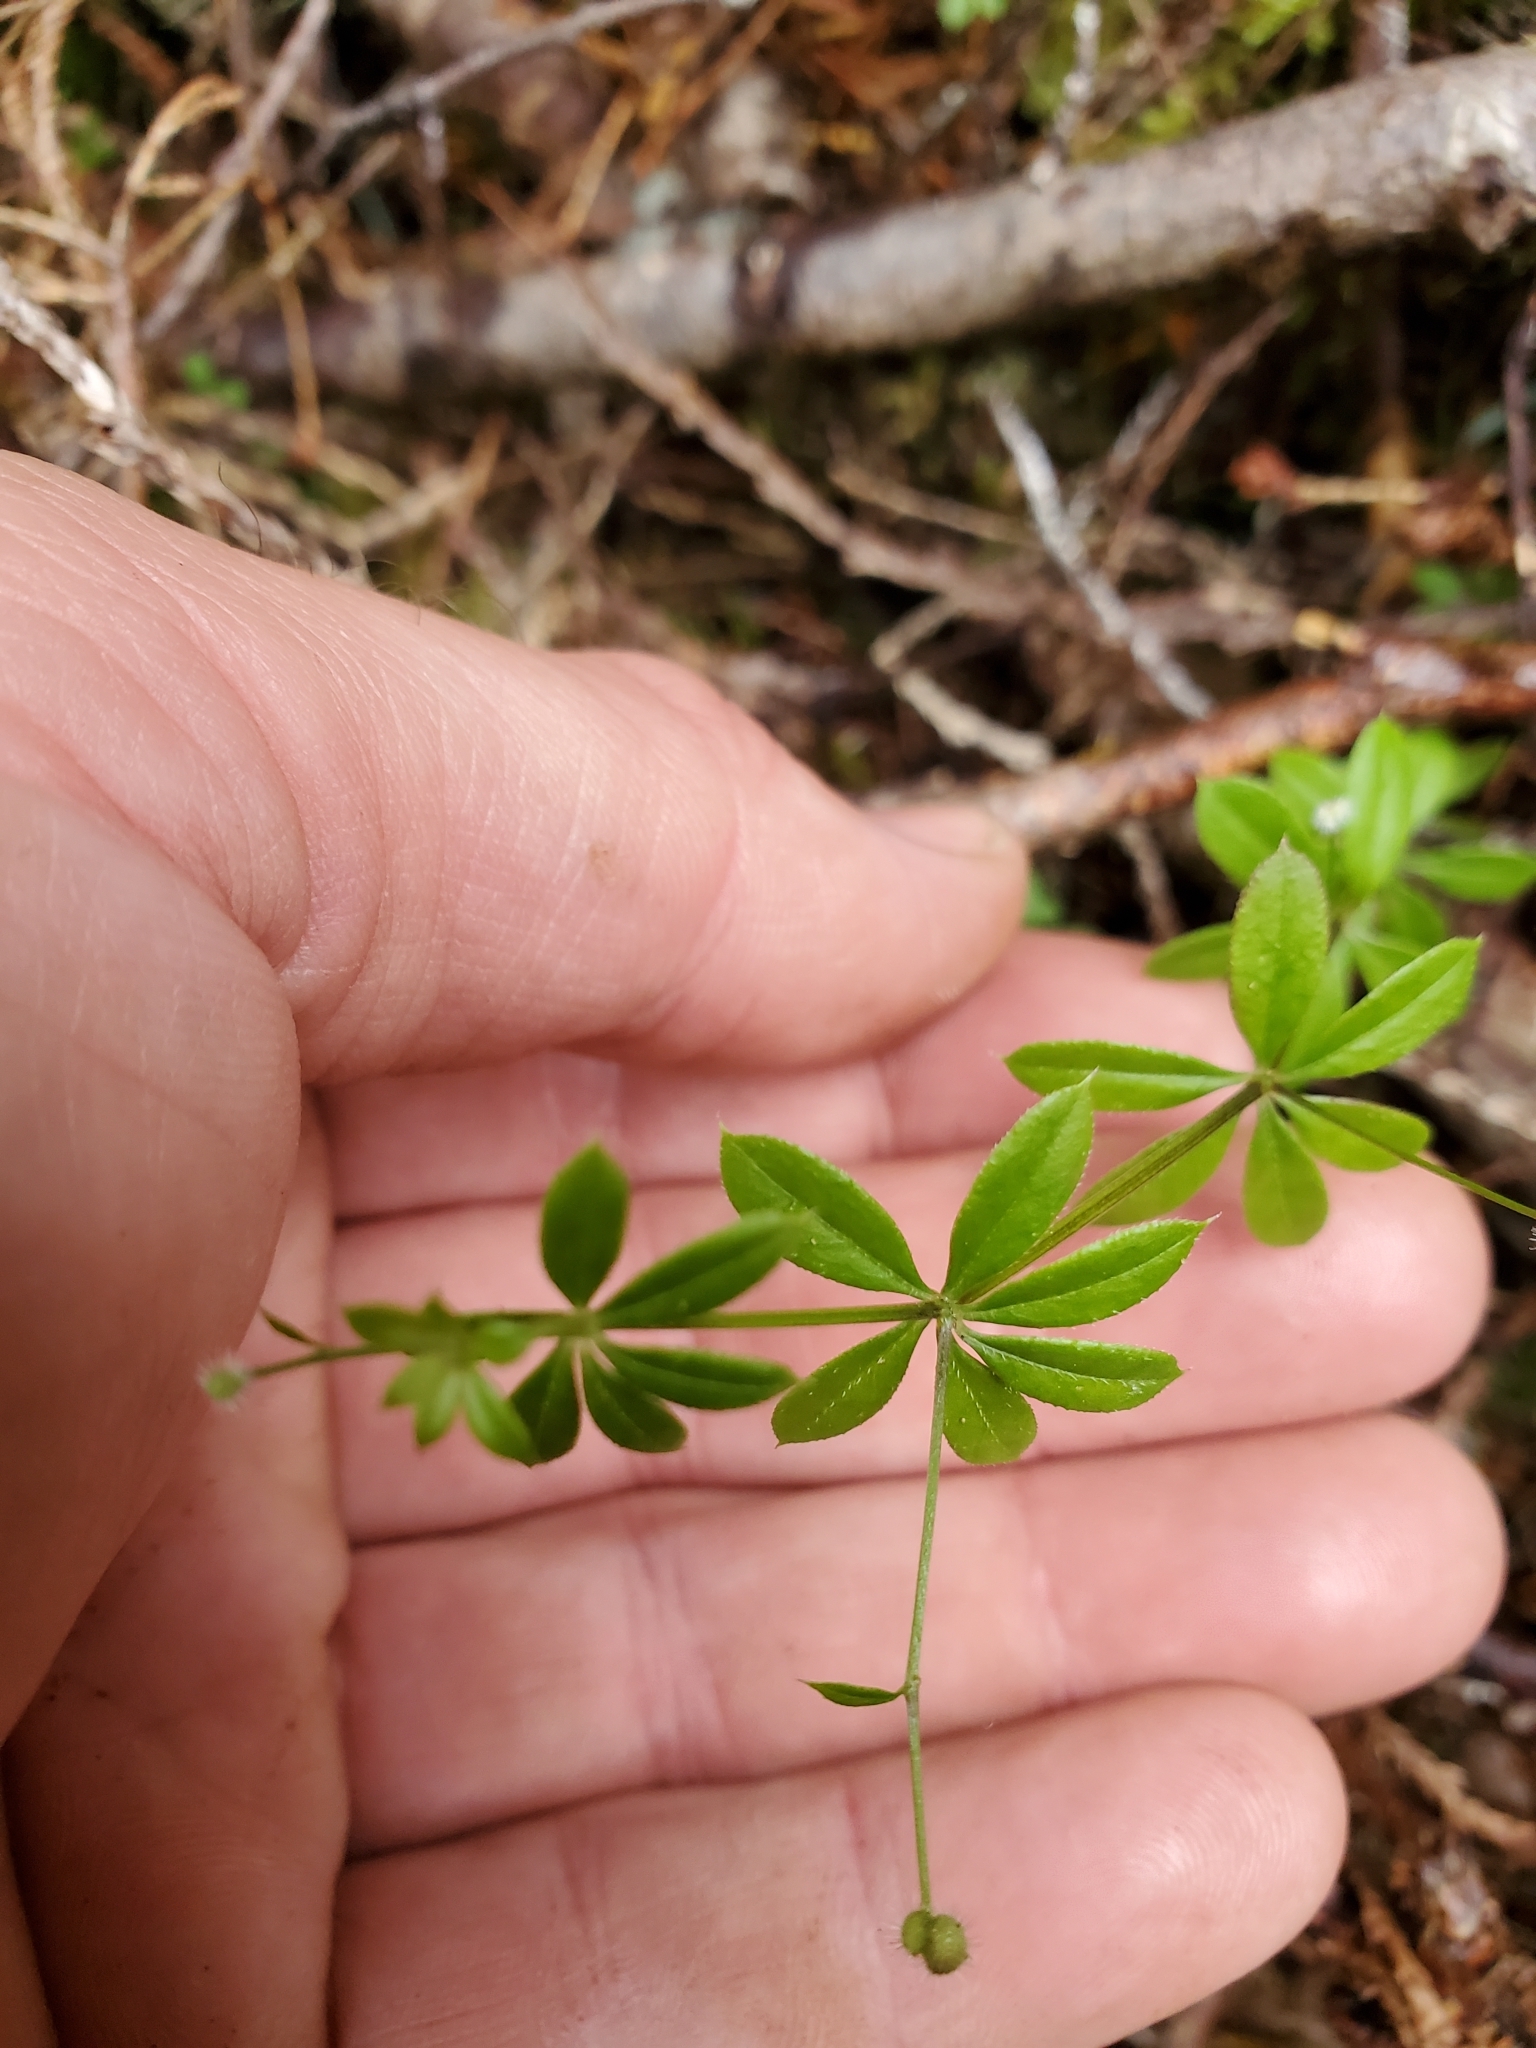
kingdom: Plantae
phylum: Tracheophyta
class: Magnoliopsida
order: Gentianales
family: Rubiaceae
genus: Galium
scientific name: Galium triflorum
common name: Fragrant bedstraw
